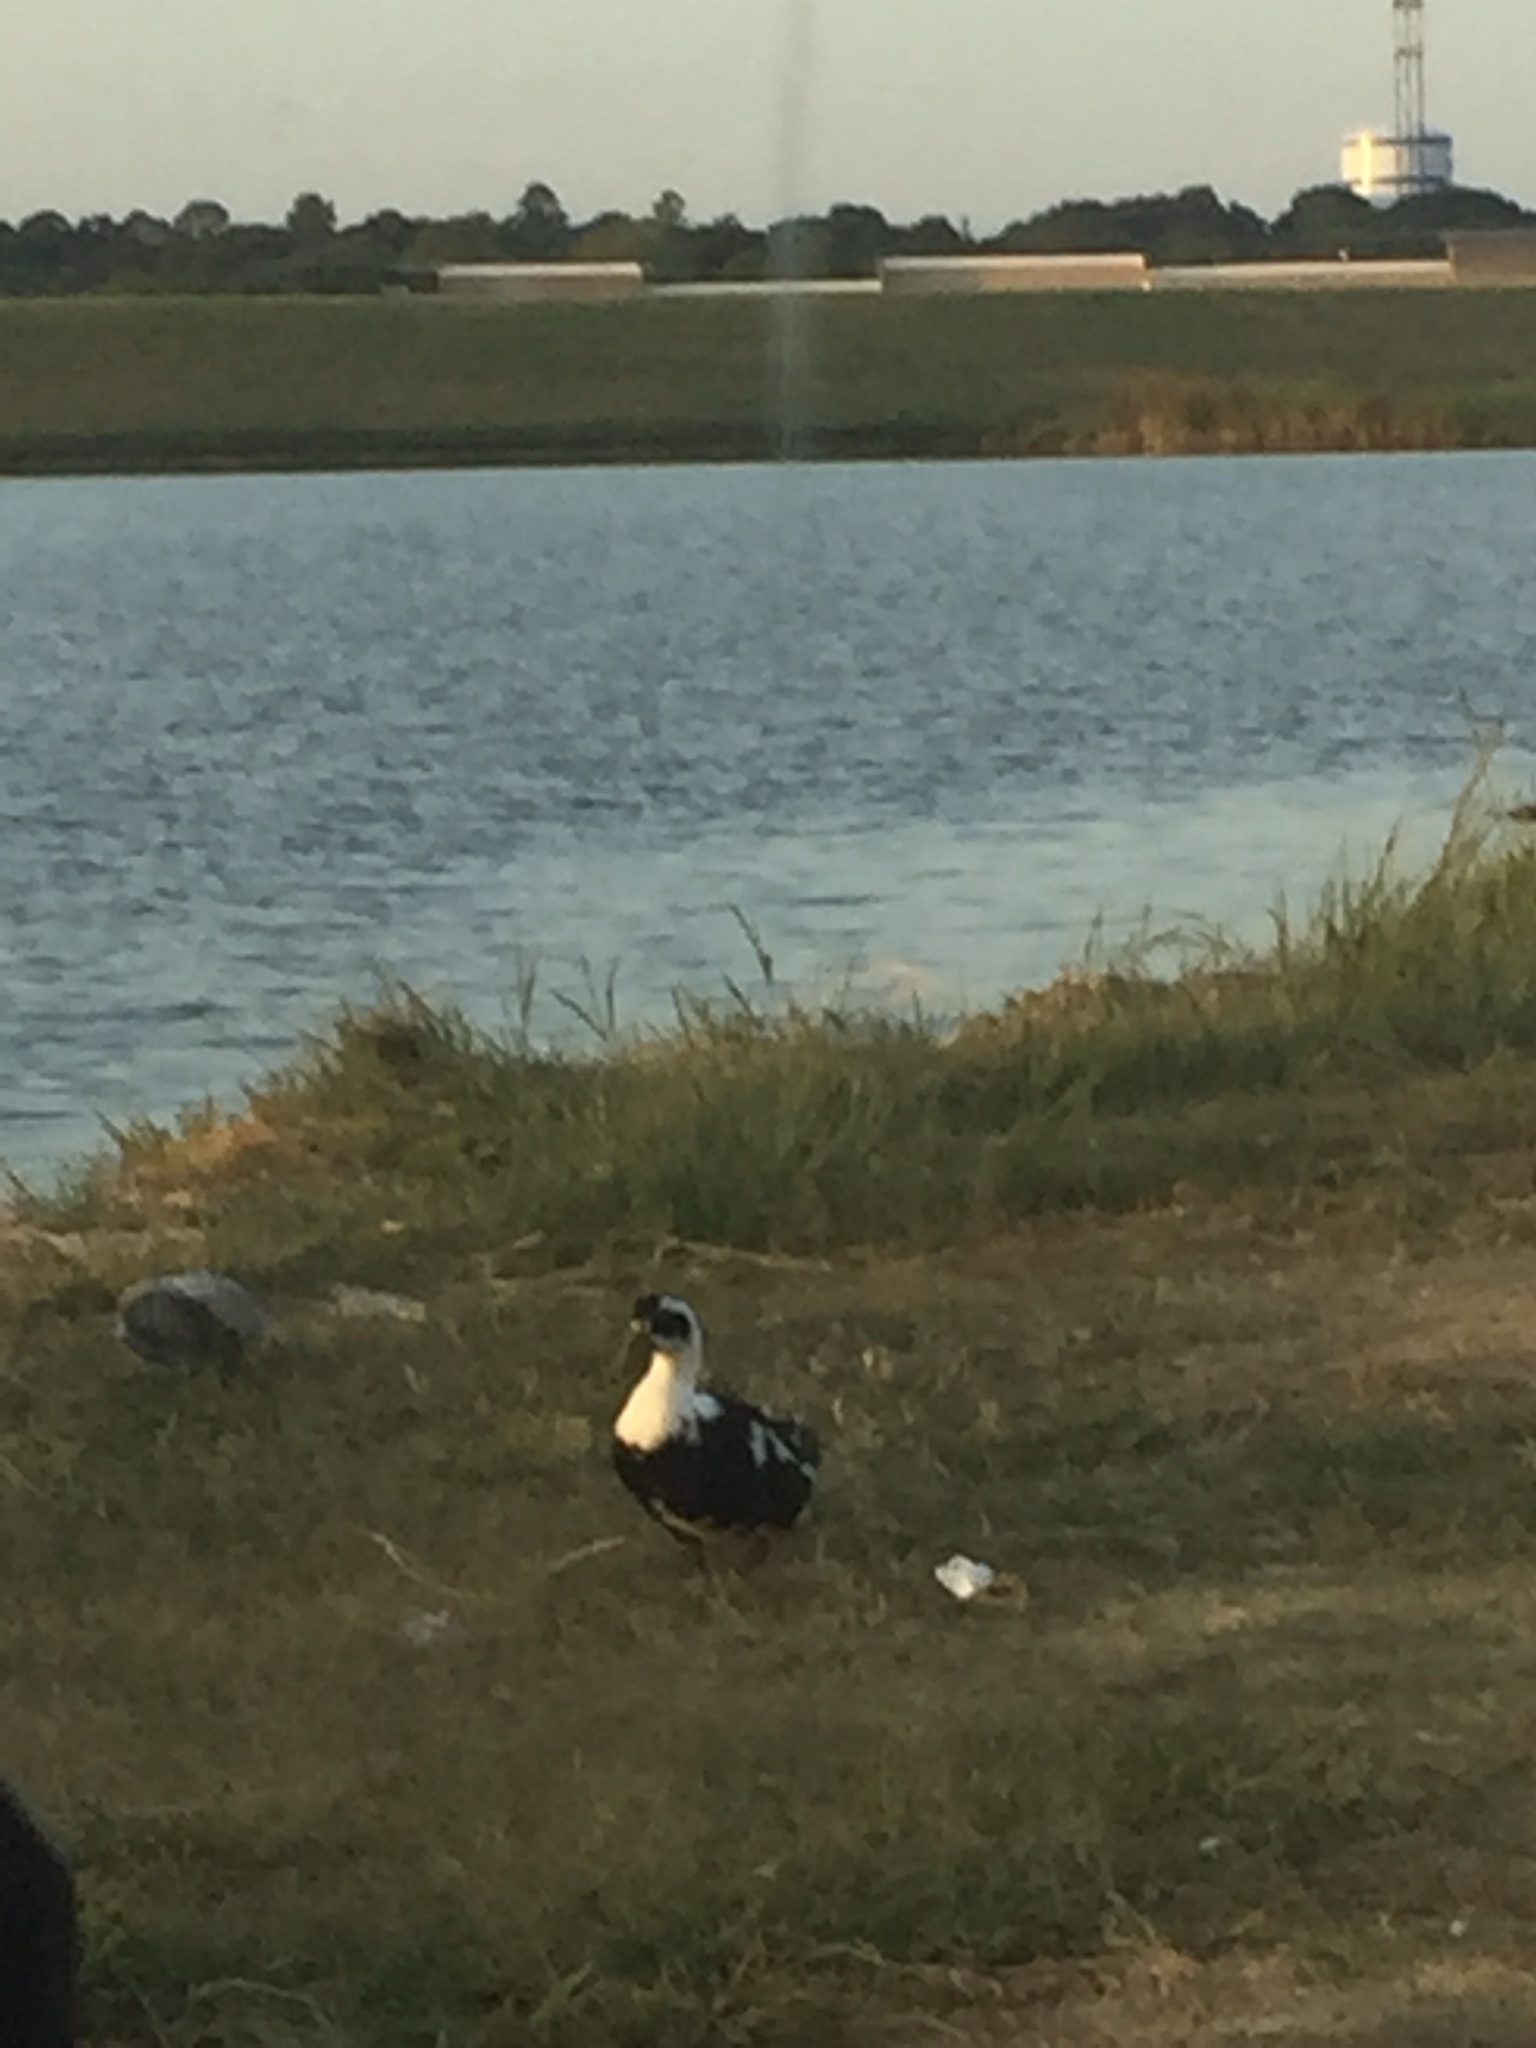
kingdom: Animalia
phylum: Chordata
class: Aves
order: Anseriformes
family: Anatidae
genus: Anas
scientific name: Anas platyrhynchos
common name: Mallard
